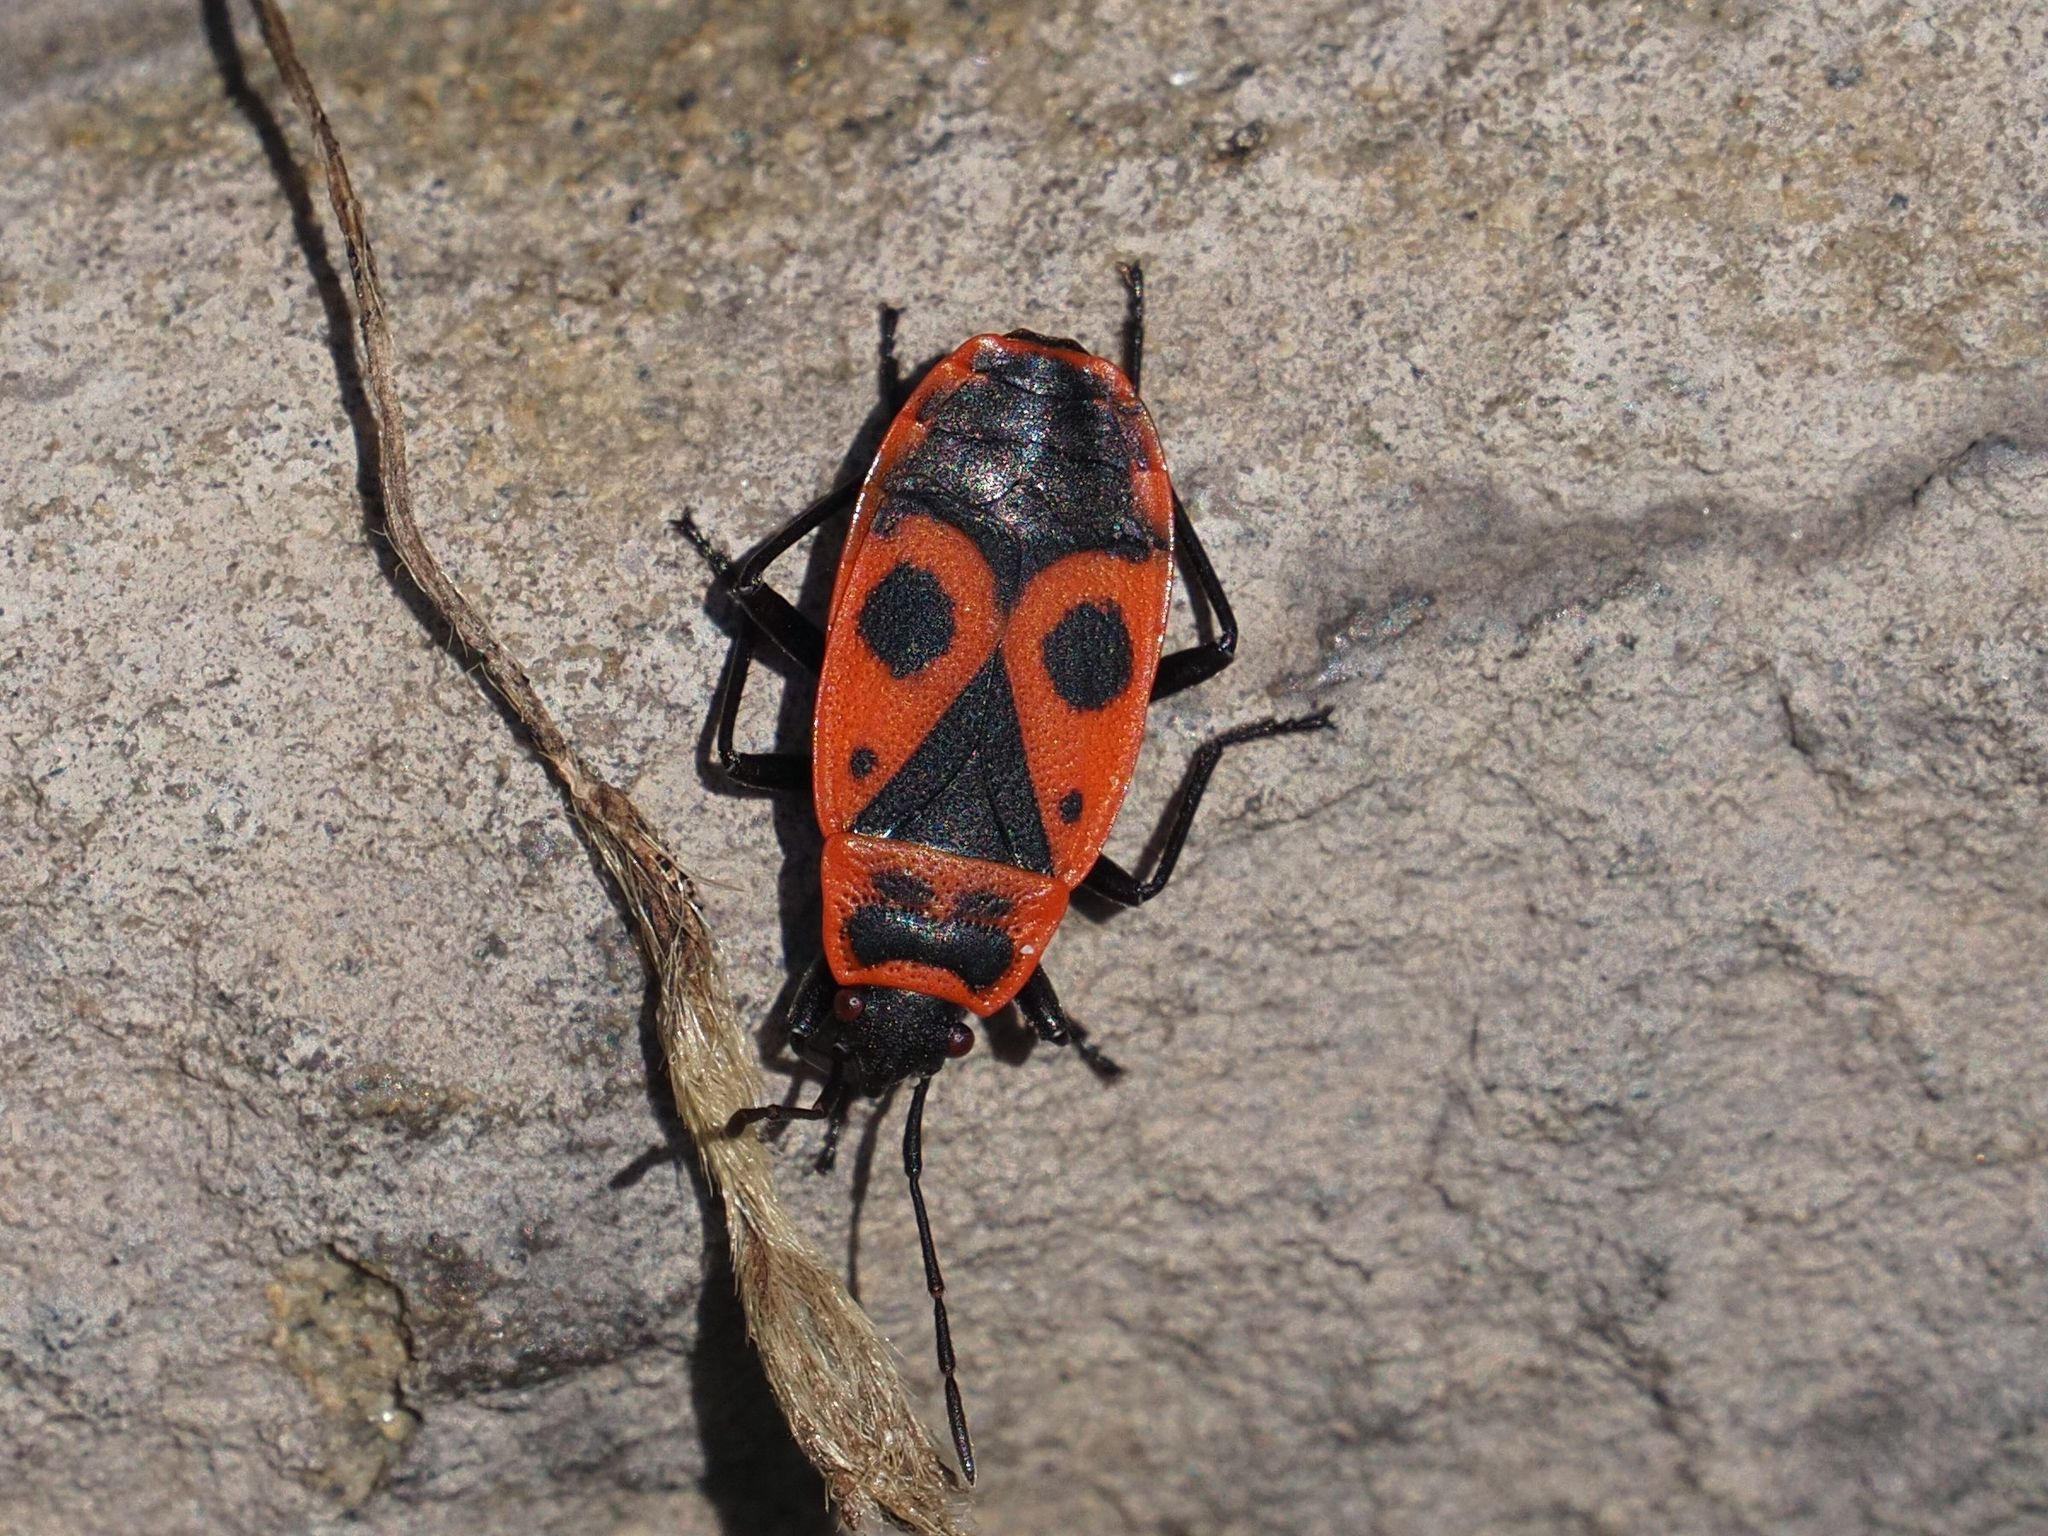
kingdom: Animalia
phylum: Arthropoda
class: Insecta
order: Hemiptera
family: Pyrrhocoridae
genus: Pyrrhocoris
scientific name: Pyrrhocoris apterus
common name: Firebug
